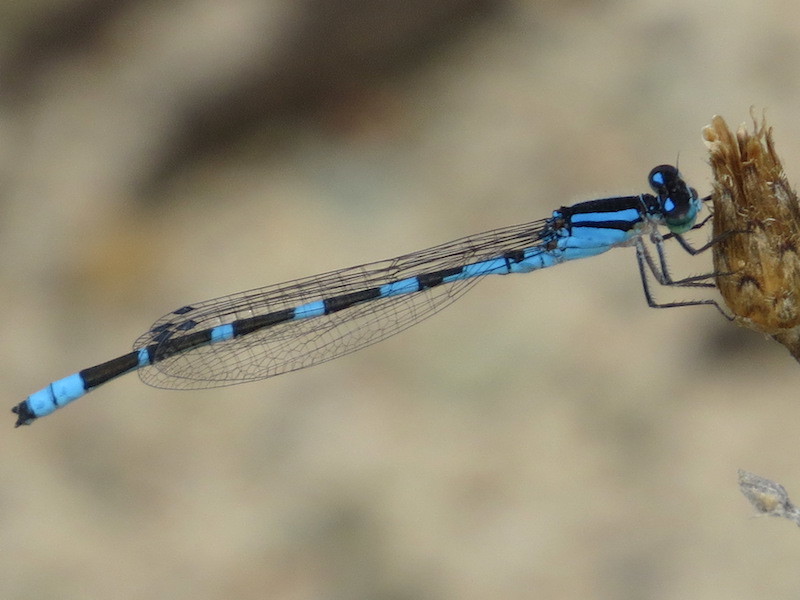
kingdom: Animalia
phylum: Arthropoda
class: Insecta
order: Odonata
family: Coenagrionidae
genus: Enallagma
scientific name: Enallagma carunculatum
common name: Tule bluet
